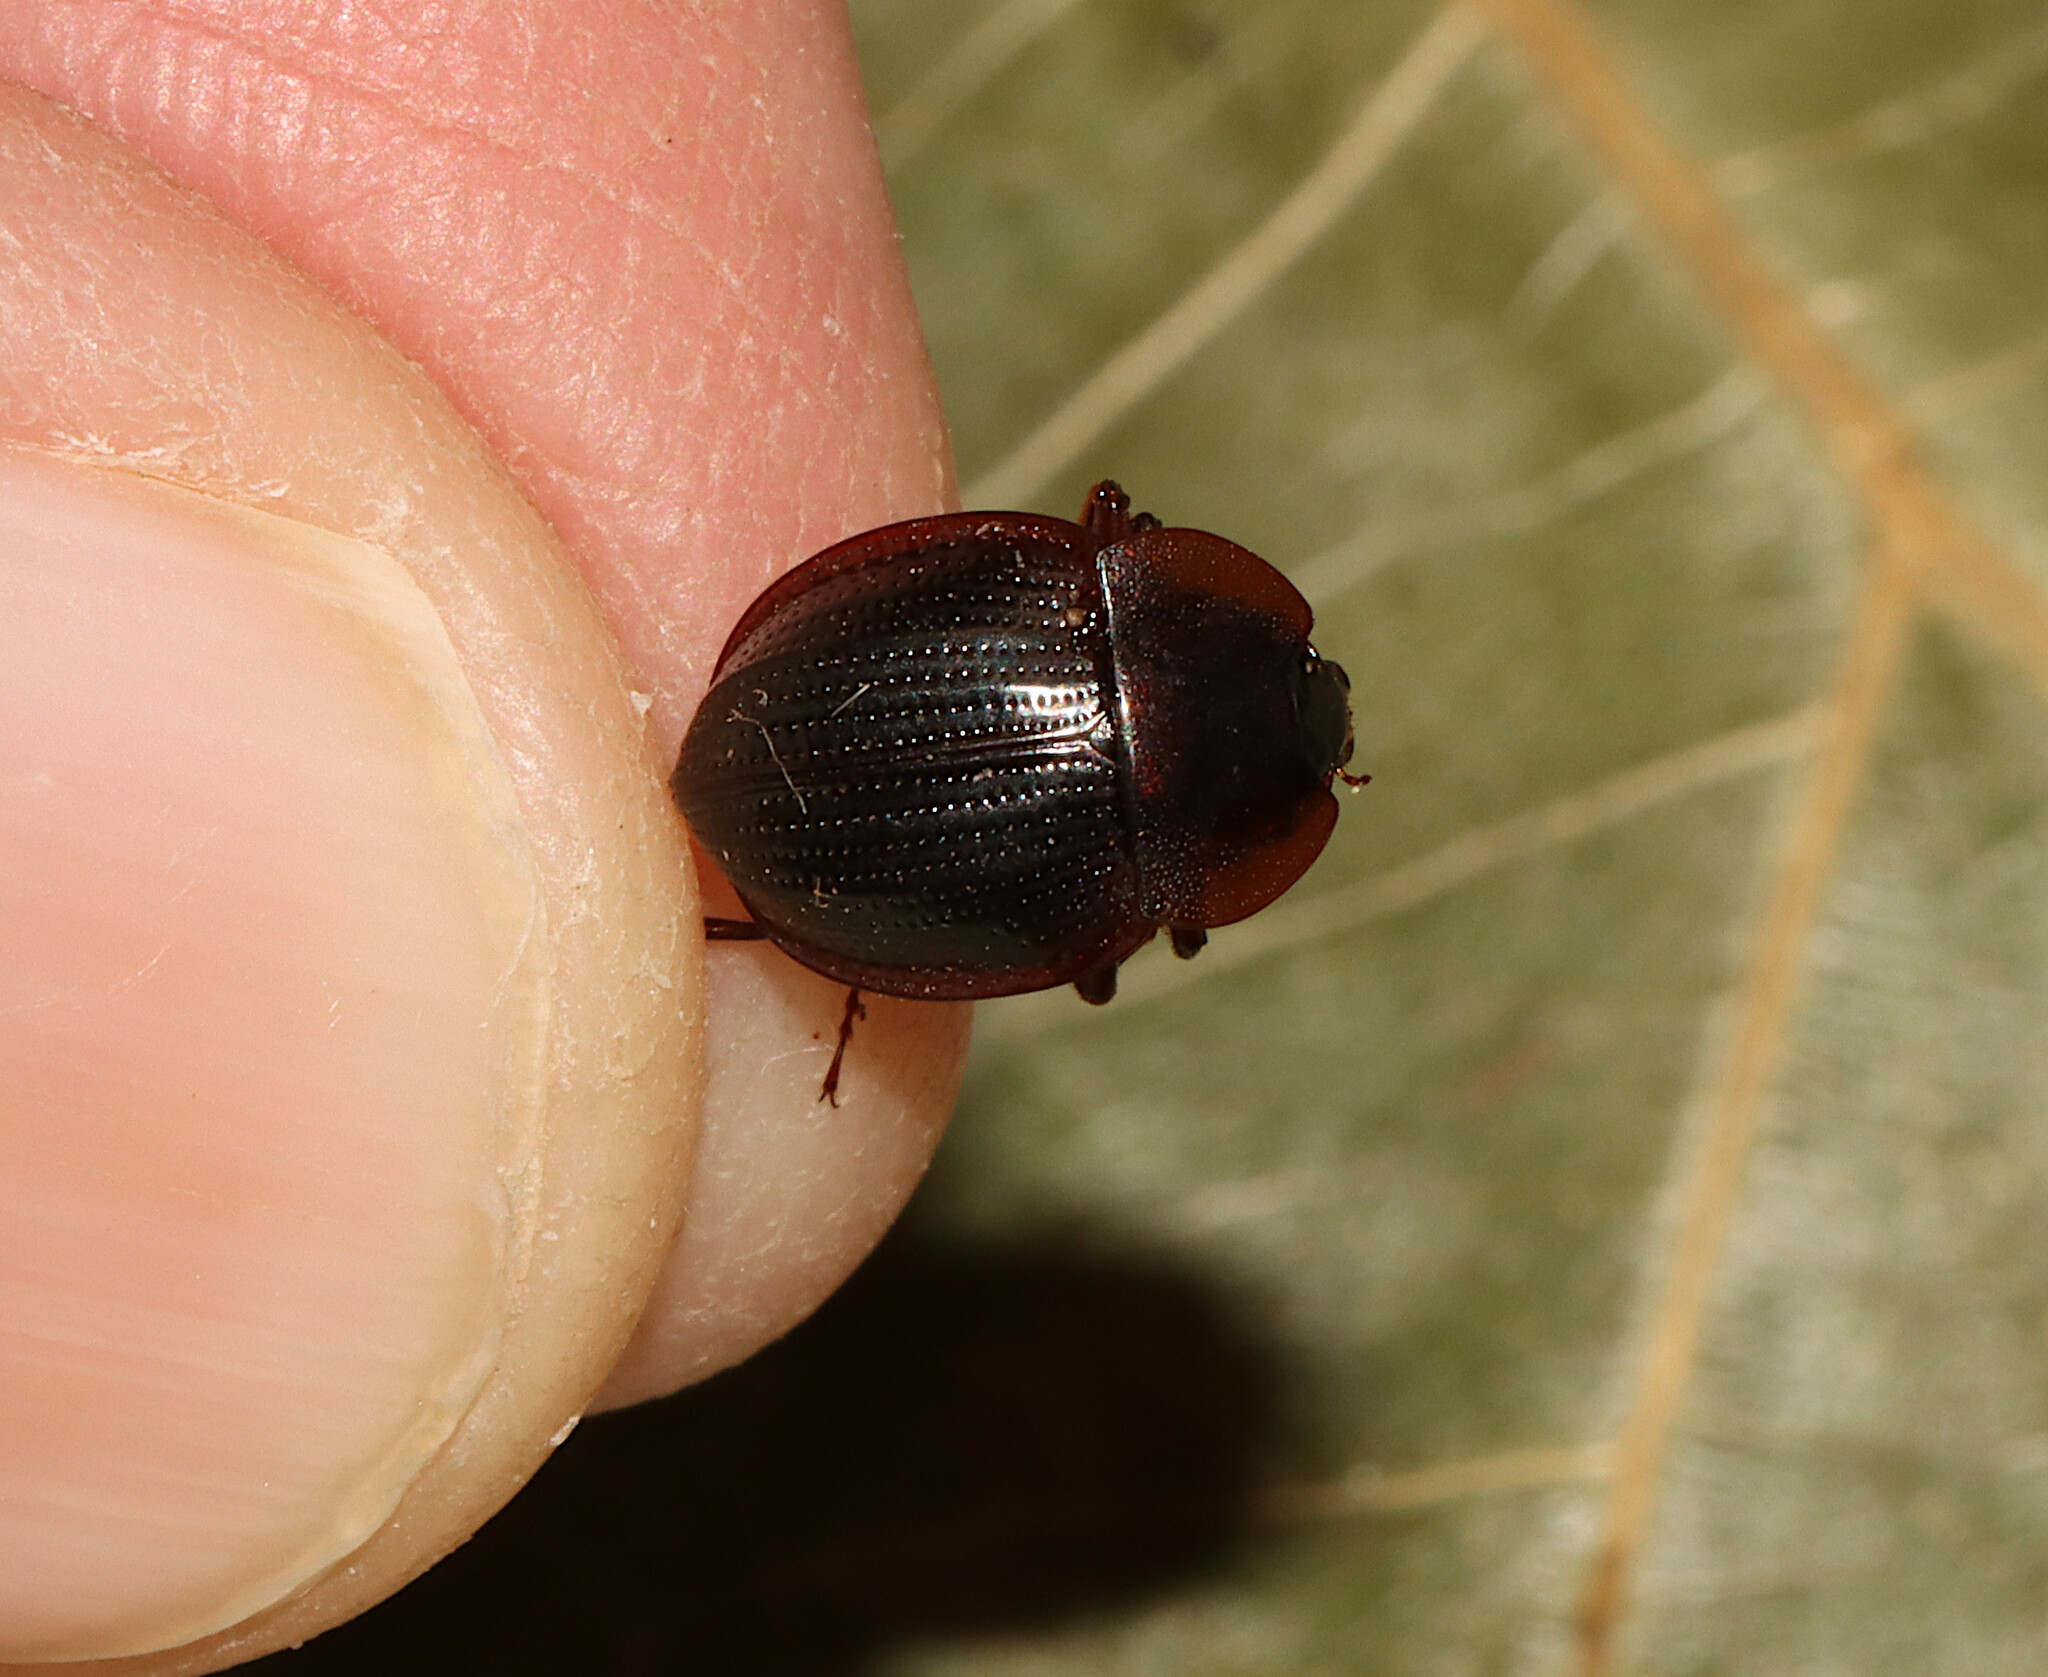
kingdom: Animalia
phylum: Arthropoda
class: Insecta
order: Coleoptera
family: Agyrtidae
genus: Necrophilus
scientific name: Necrophilus pettitii
